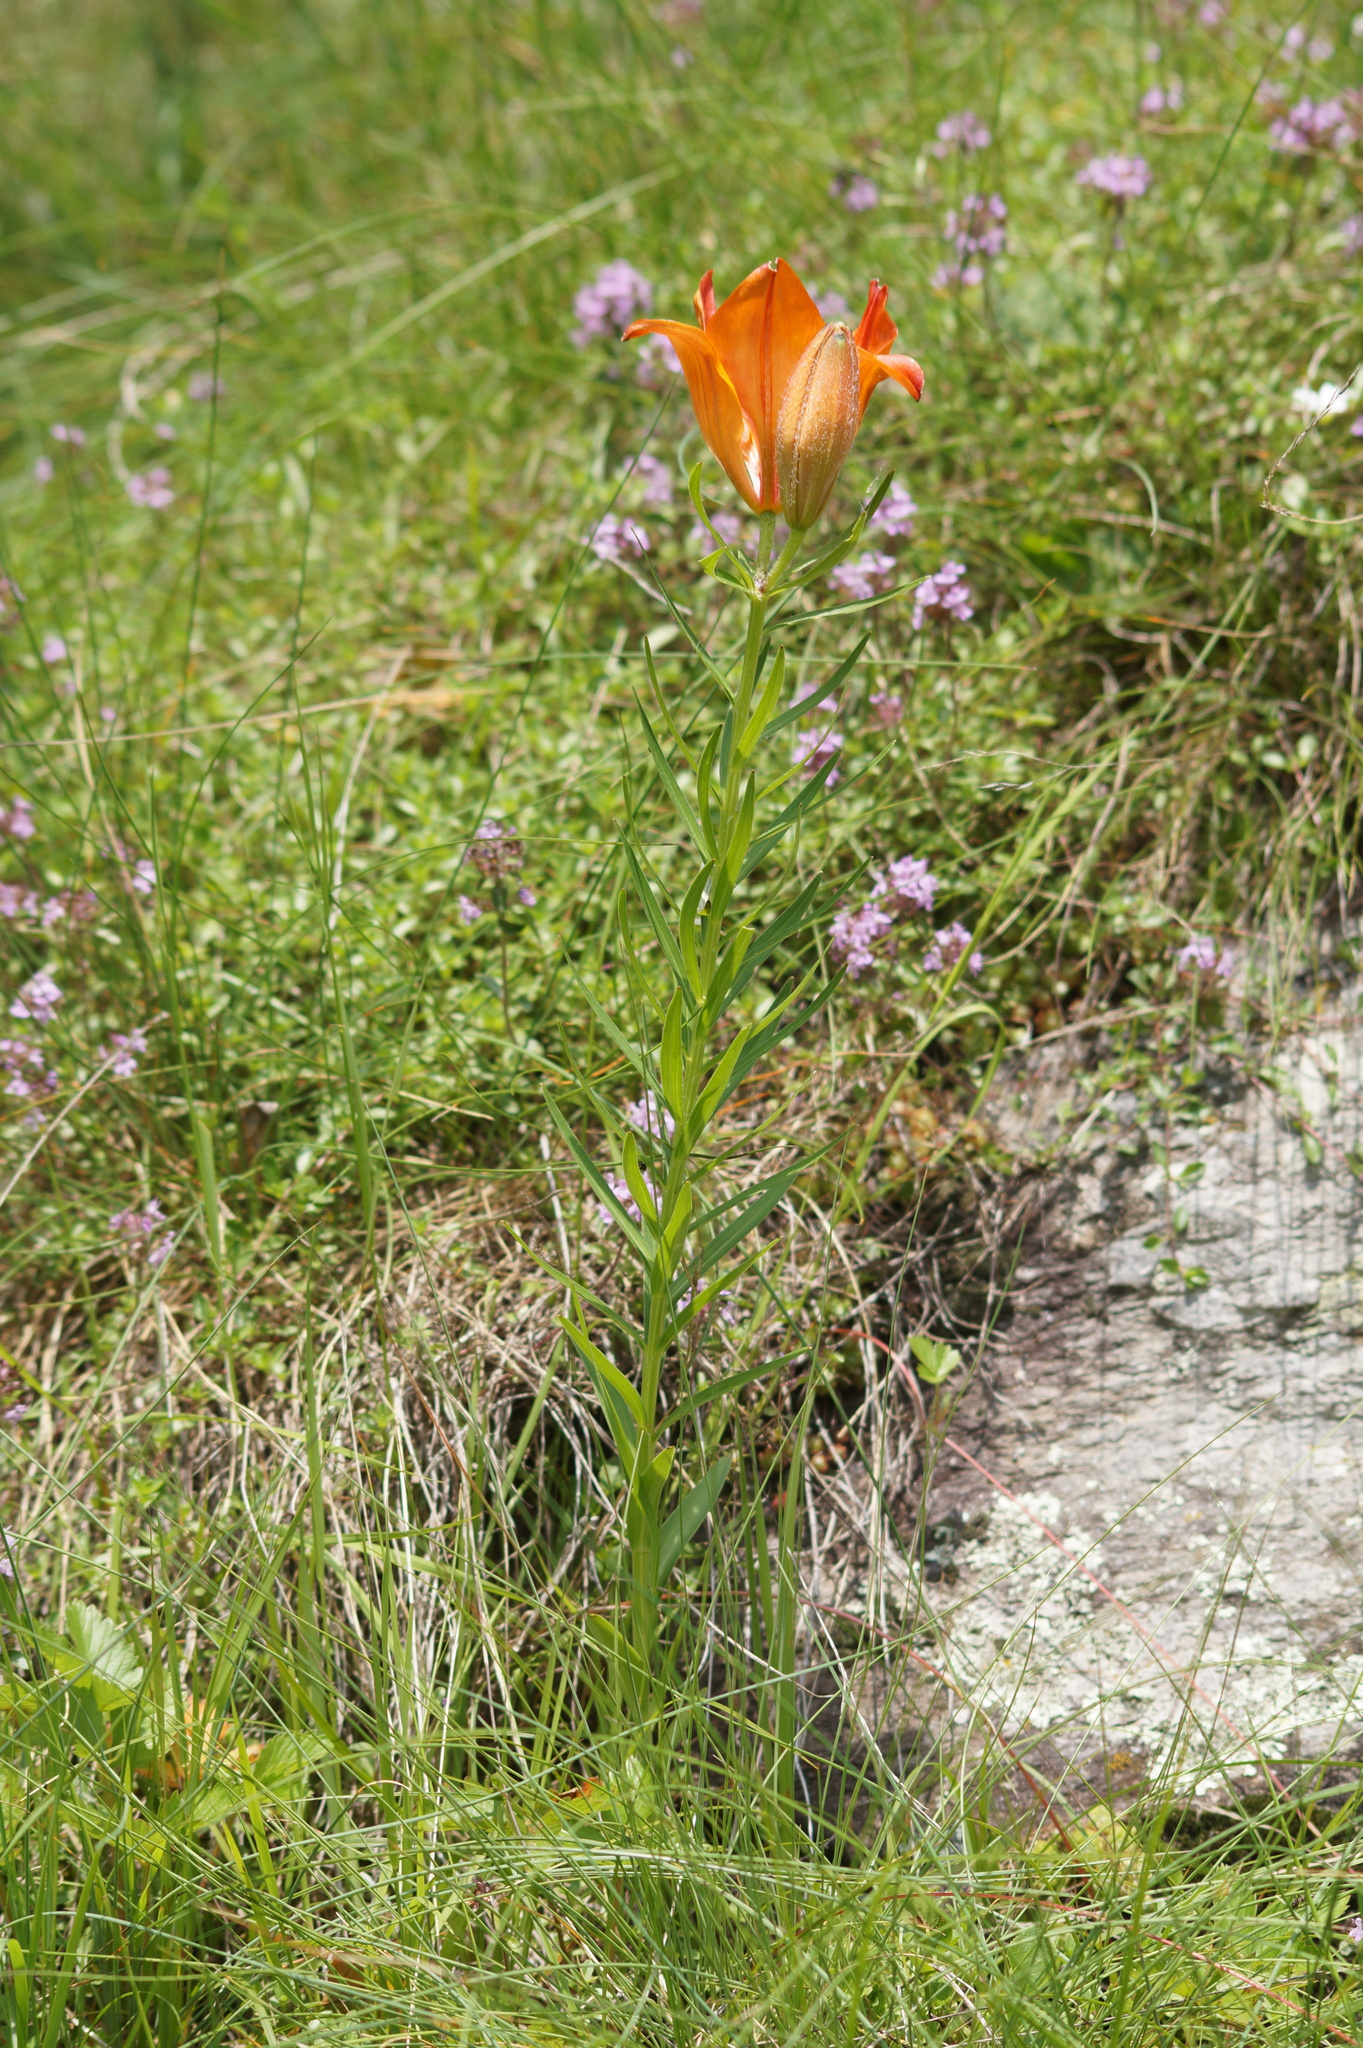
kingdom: Plantae
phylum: Tracheophyta
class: Liliopsida
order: Liliales
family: Liliaceae
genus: Lilium
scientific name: Lilium bulbiferum
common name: Orange lily
